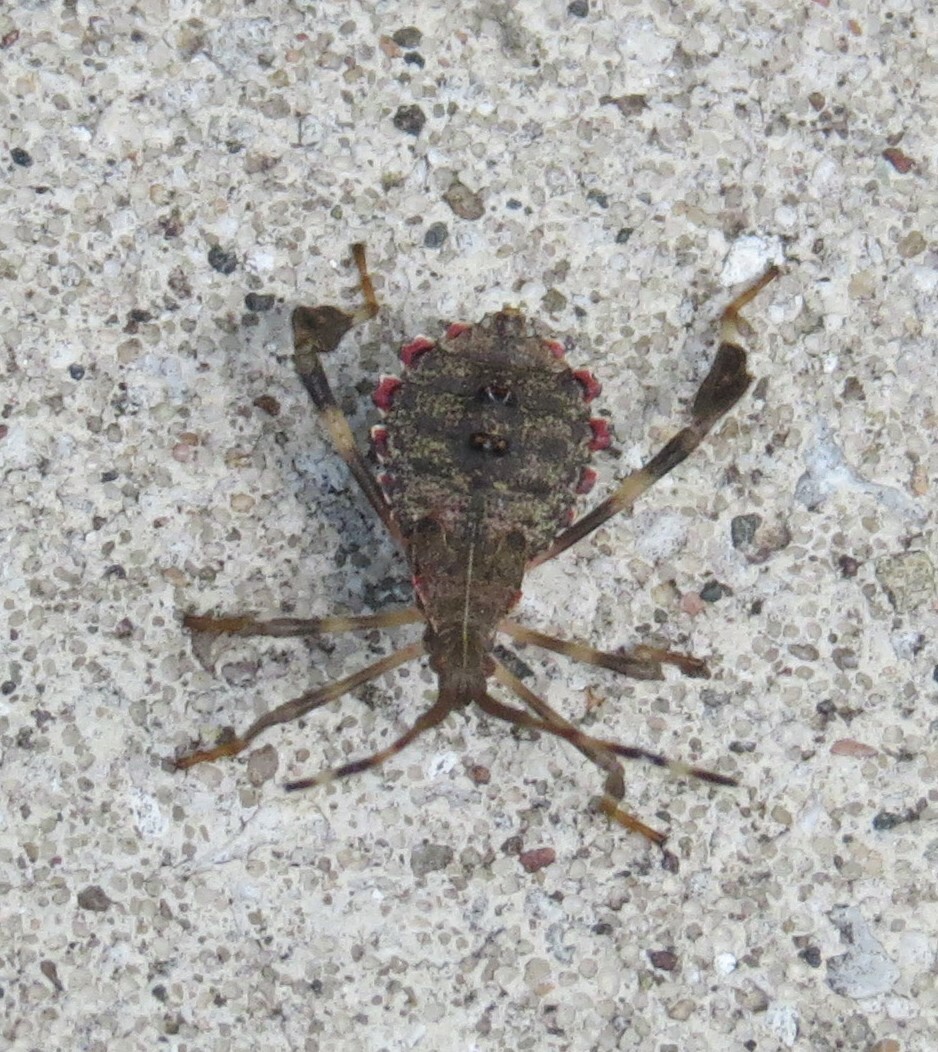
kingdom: Animalia
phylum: Arthropoda
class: Insecta
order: Hemiptera
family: Coreidae
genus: Acanthocephala
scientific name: Acanthocephala terminalis
